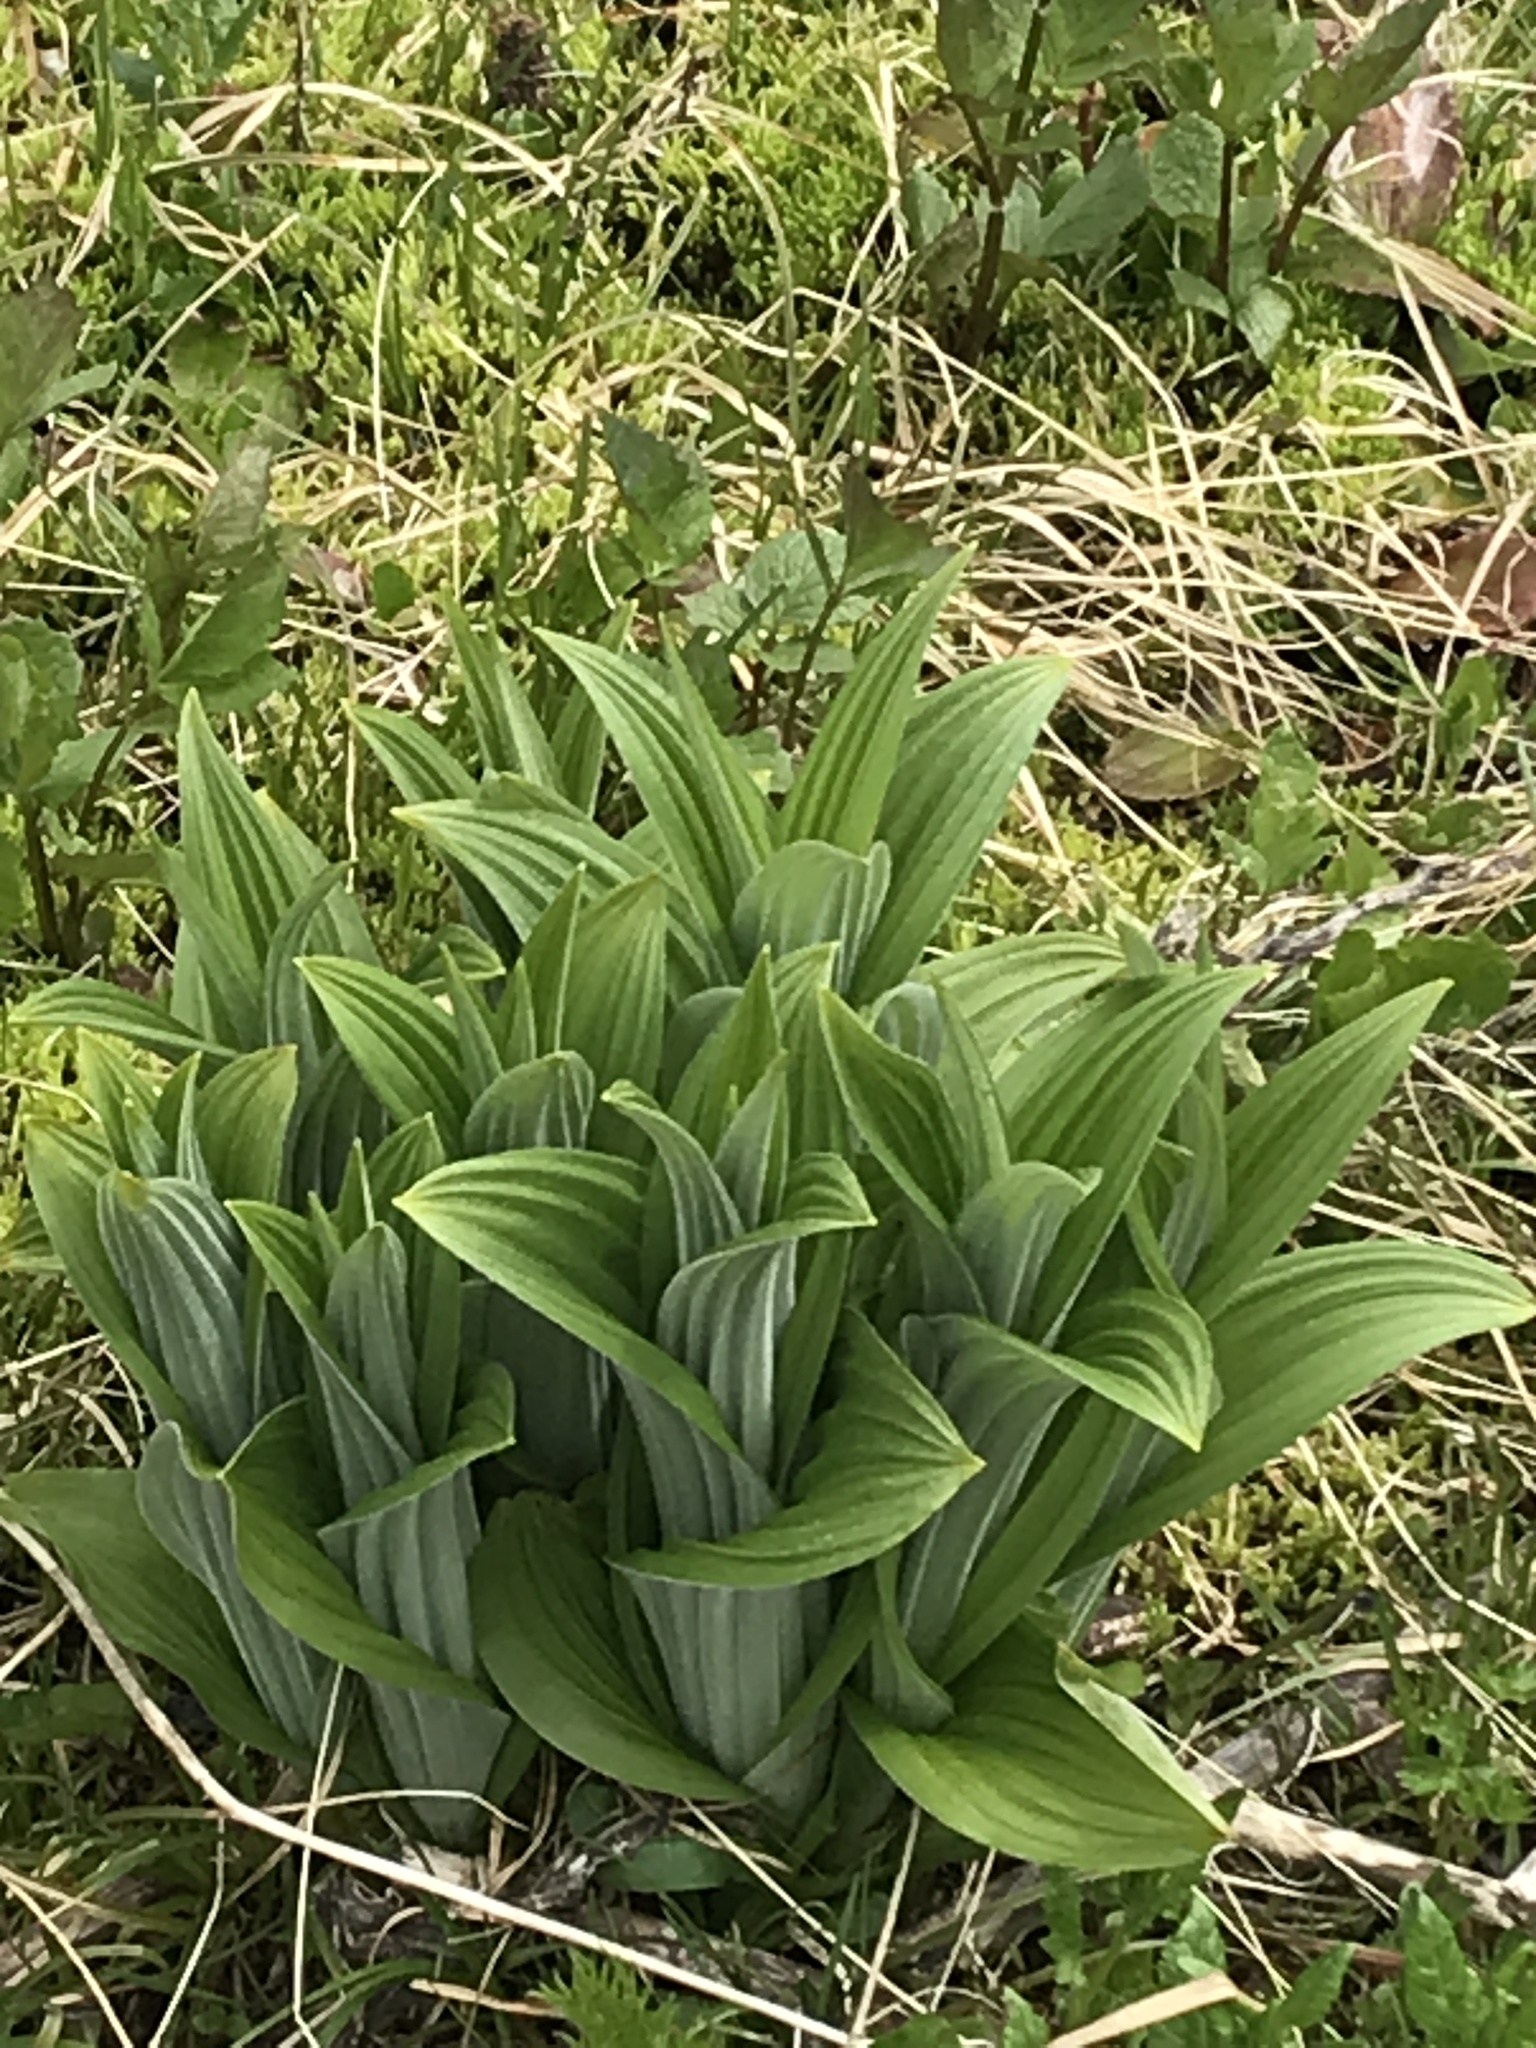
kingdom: Plantae
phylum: Tracheophyta
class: Liliopsida
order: Liliales
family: Melanthiaceae
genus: Veratrum
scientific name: Veratrum viride
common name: American false hellebore
